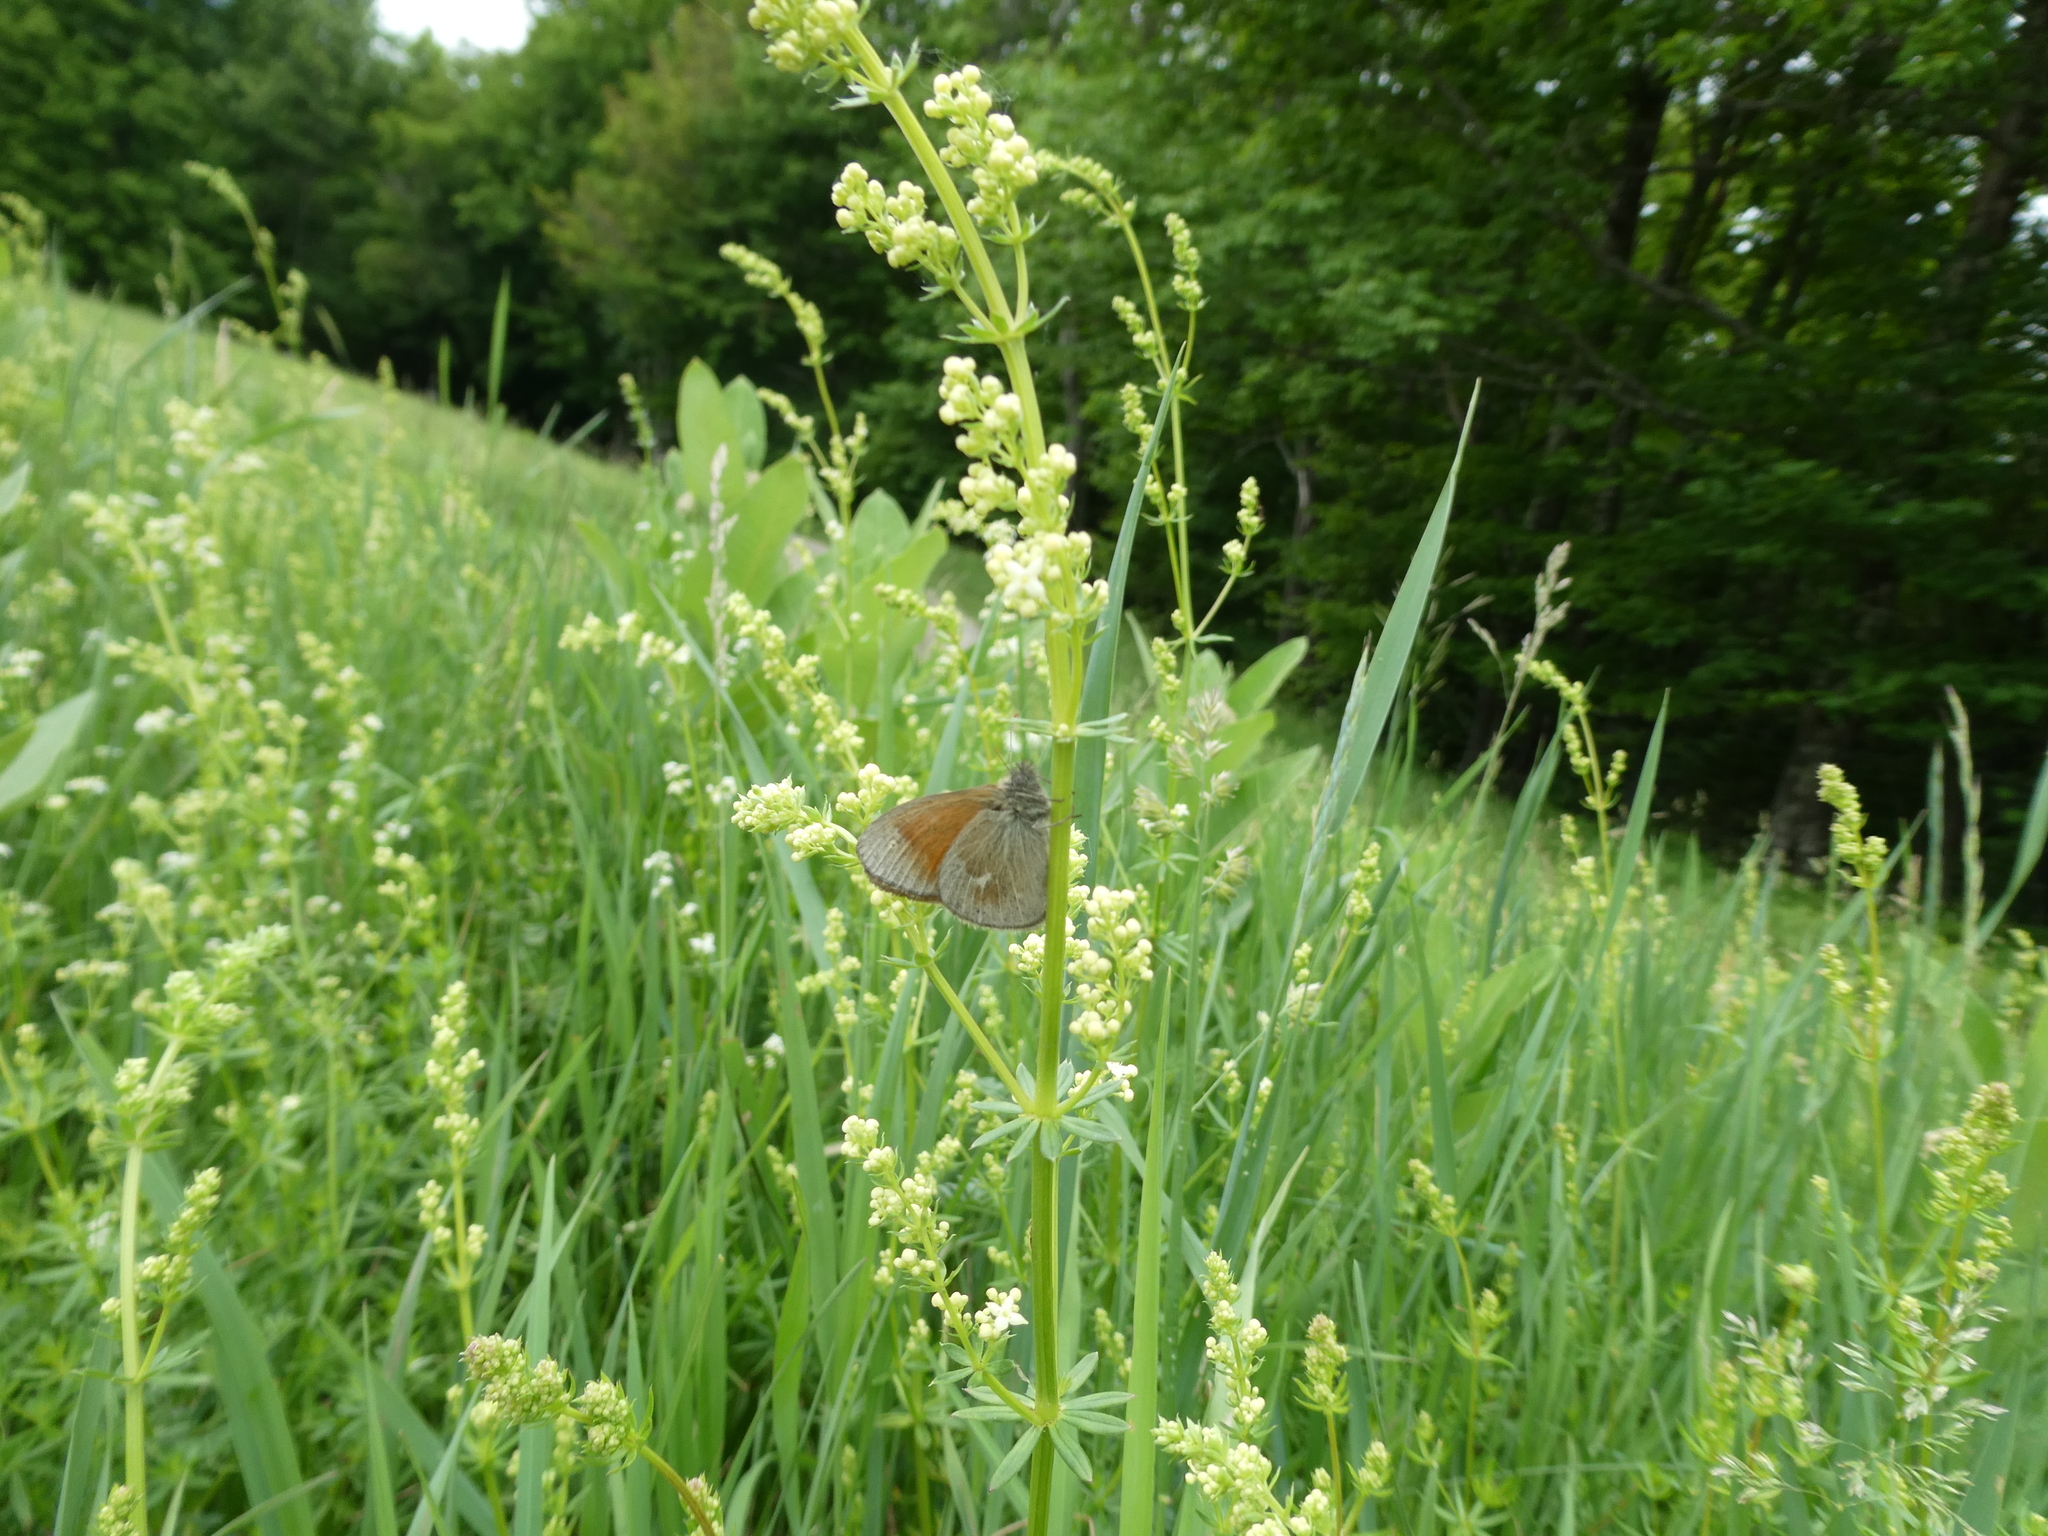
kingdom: Animalia
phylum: Arthropoda
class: Insecta
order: Lepidoptera
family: Nymphalidae
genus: Coenonympha
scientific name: Coenonympha california
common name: Common ringlet
